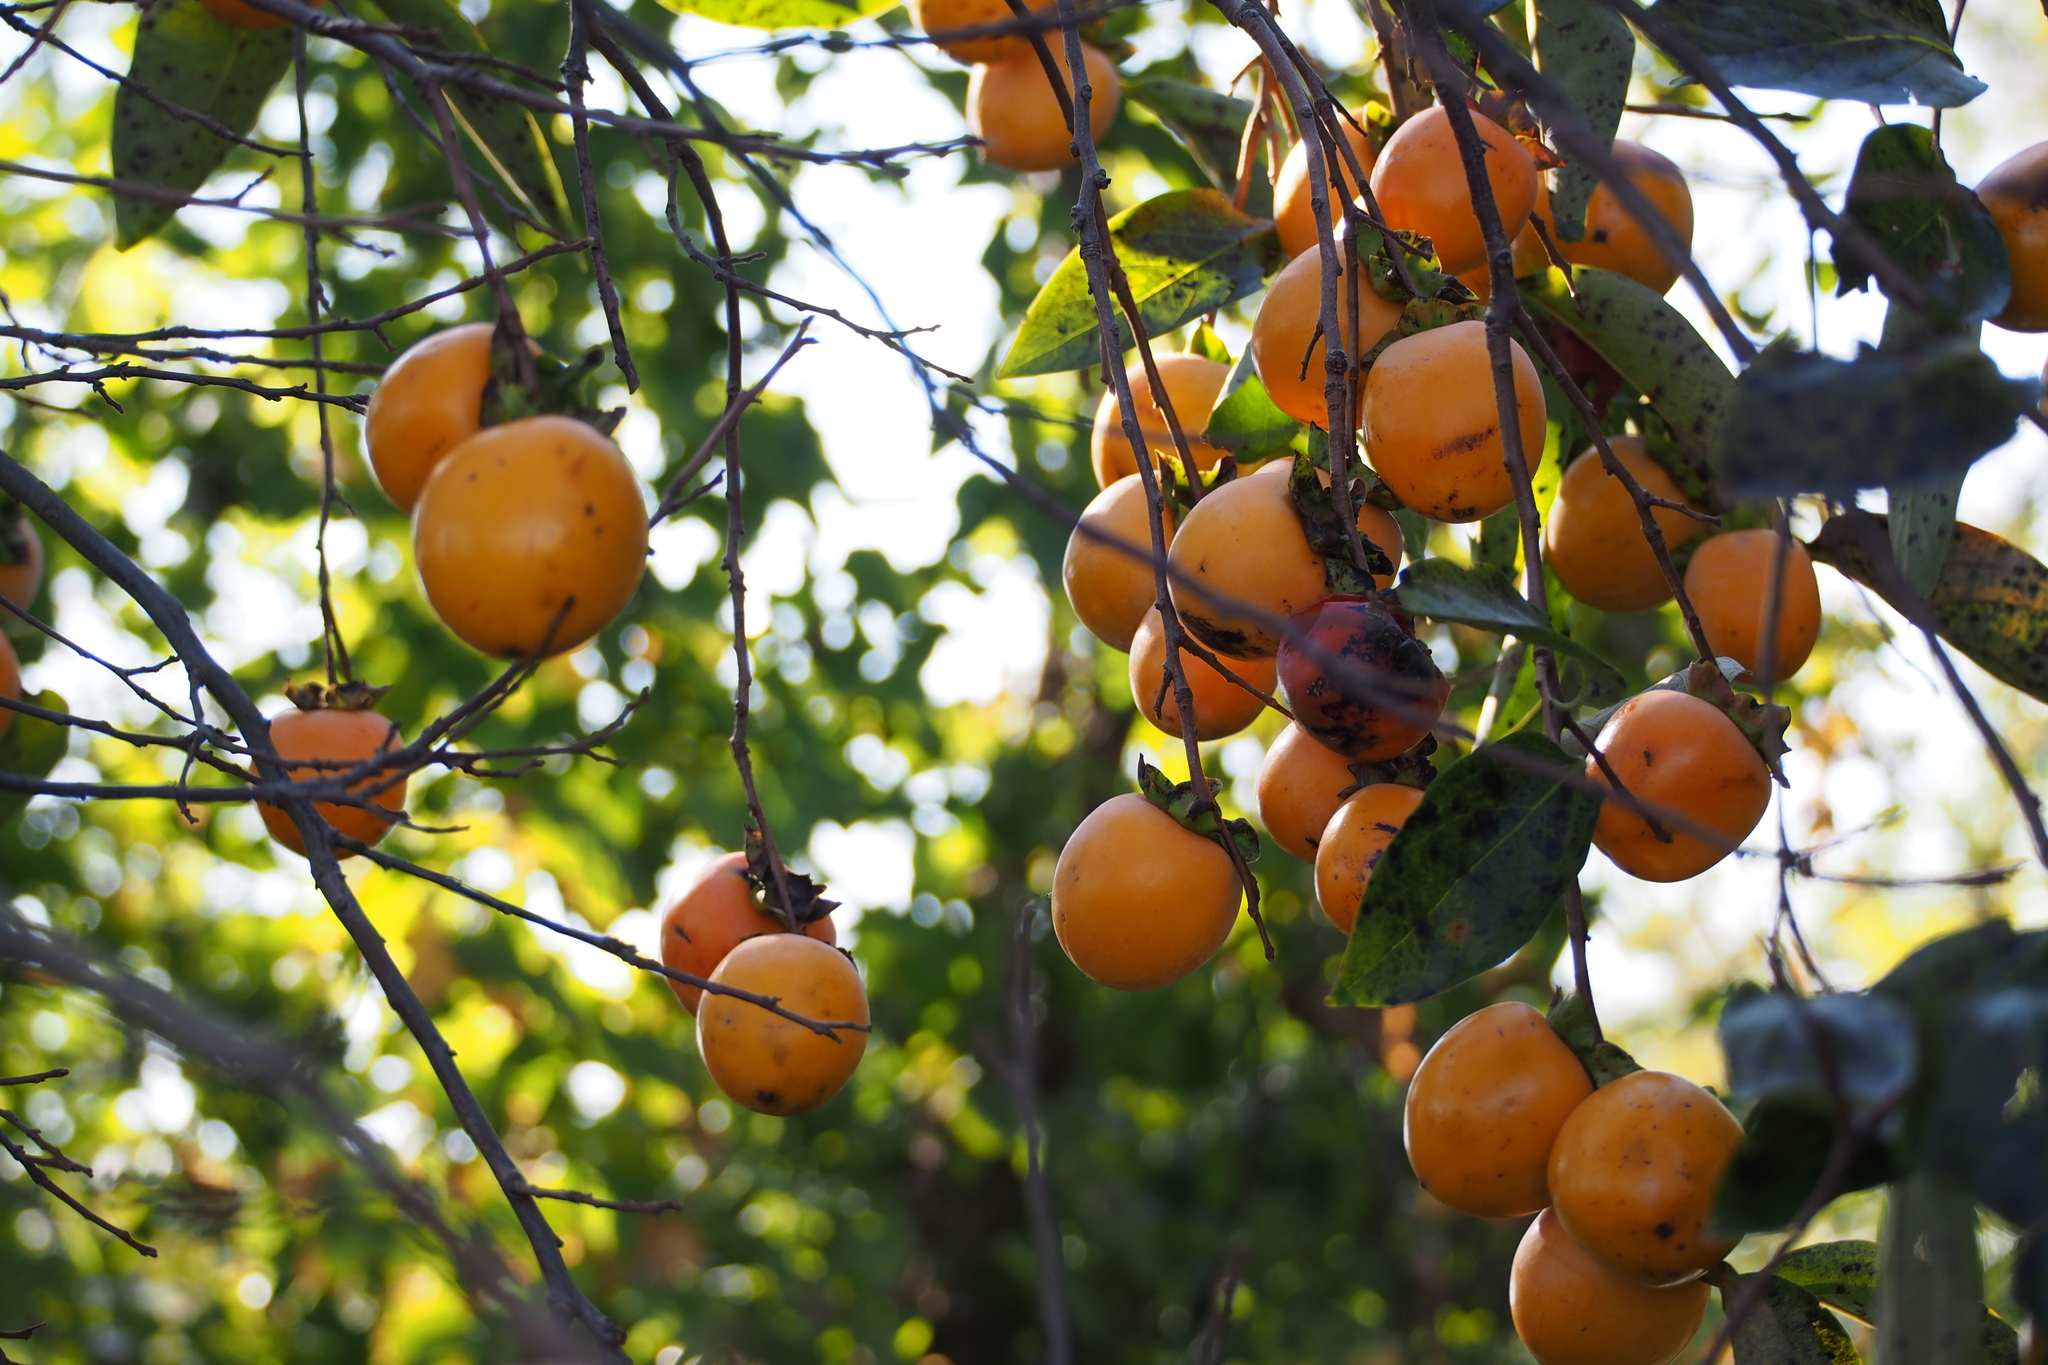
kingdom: Plantae
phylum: Tracheophyta
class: Magnoliopsida
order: Ericales
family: Ebenaceae
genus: Diospyros
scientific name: Diospyros kaki
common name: Persimmon
